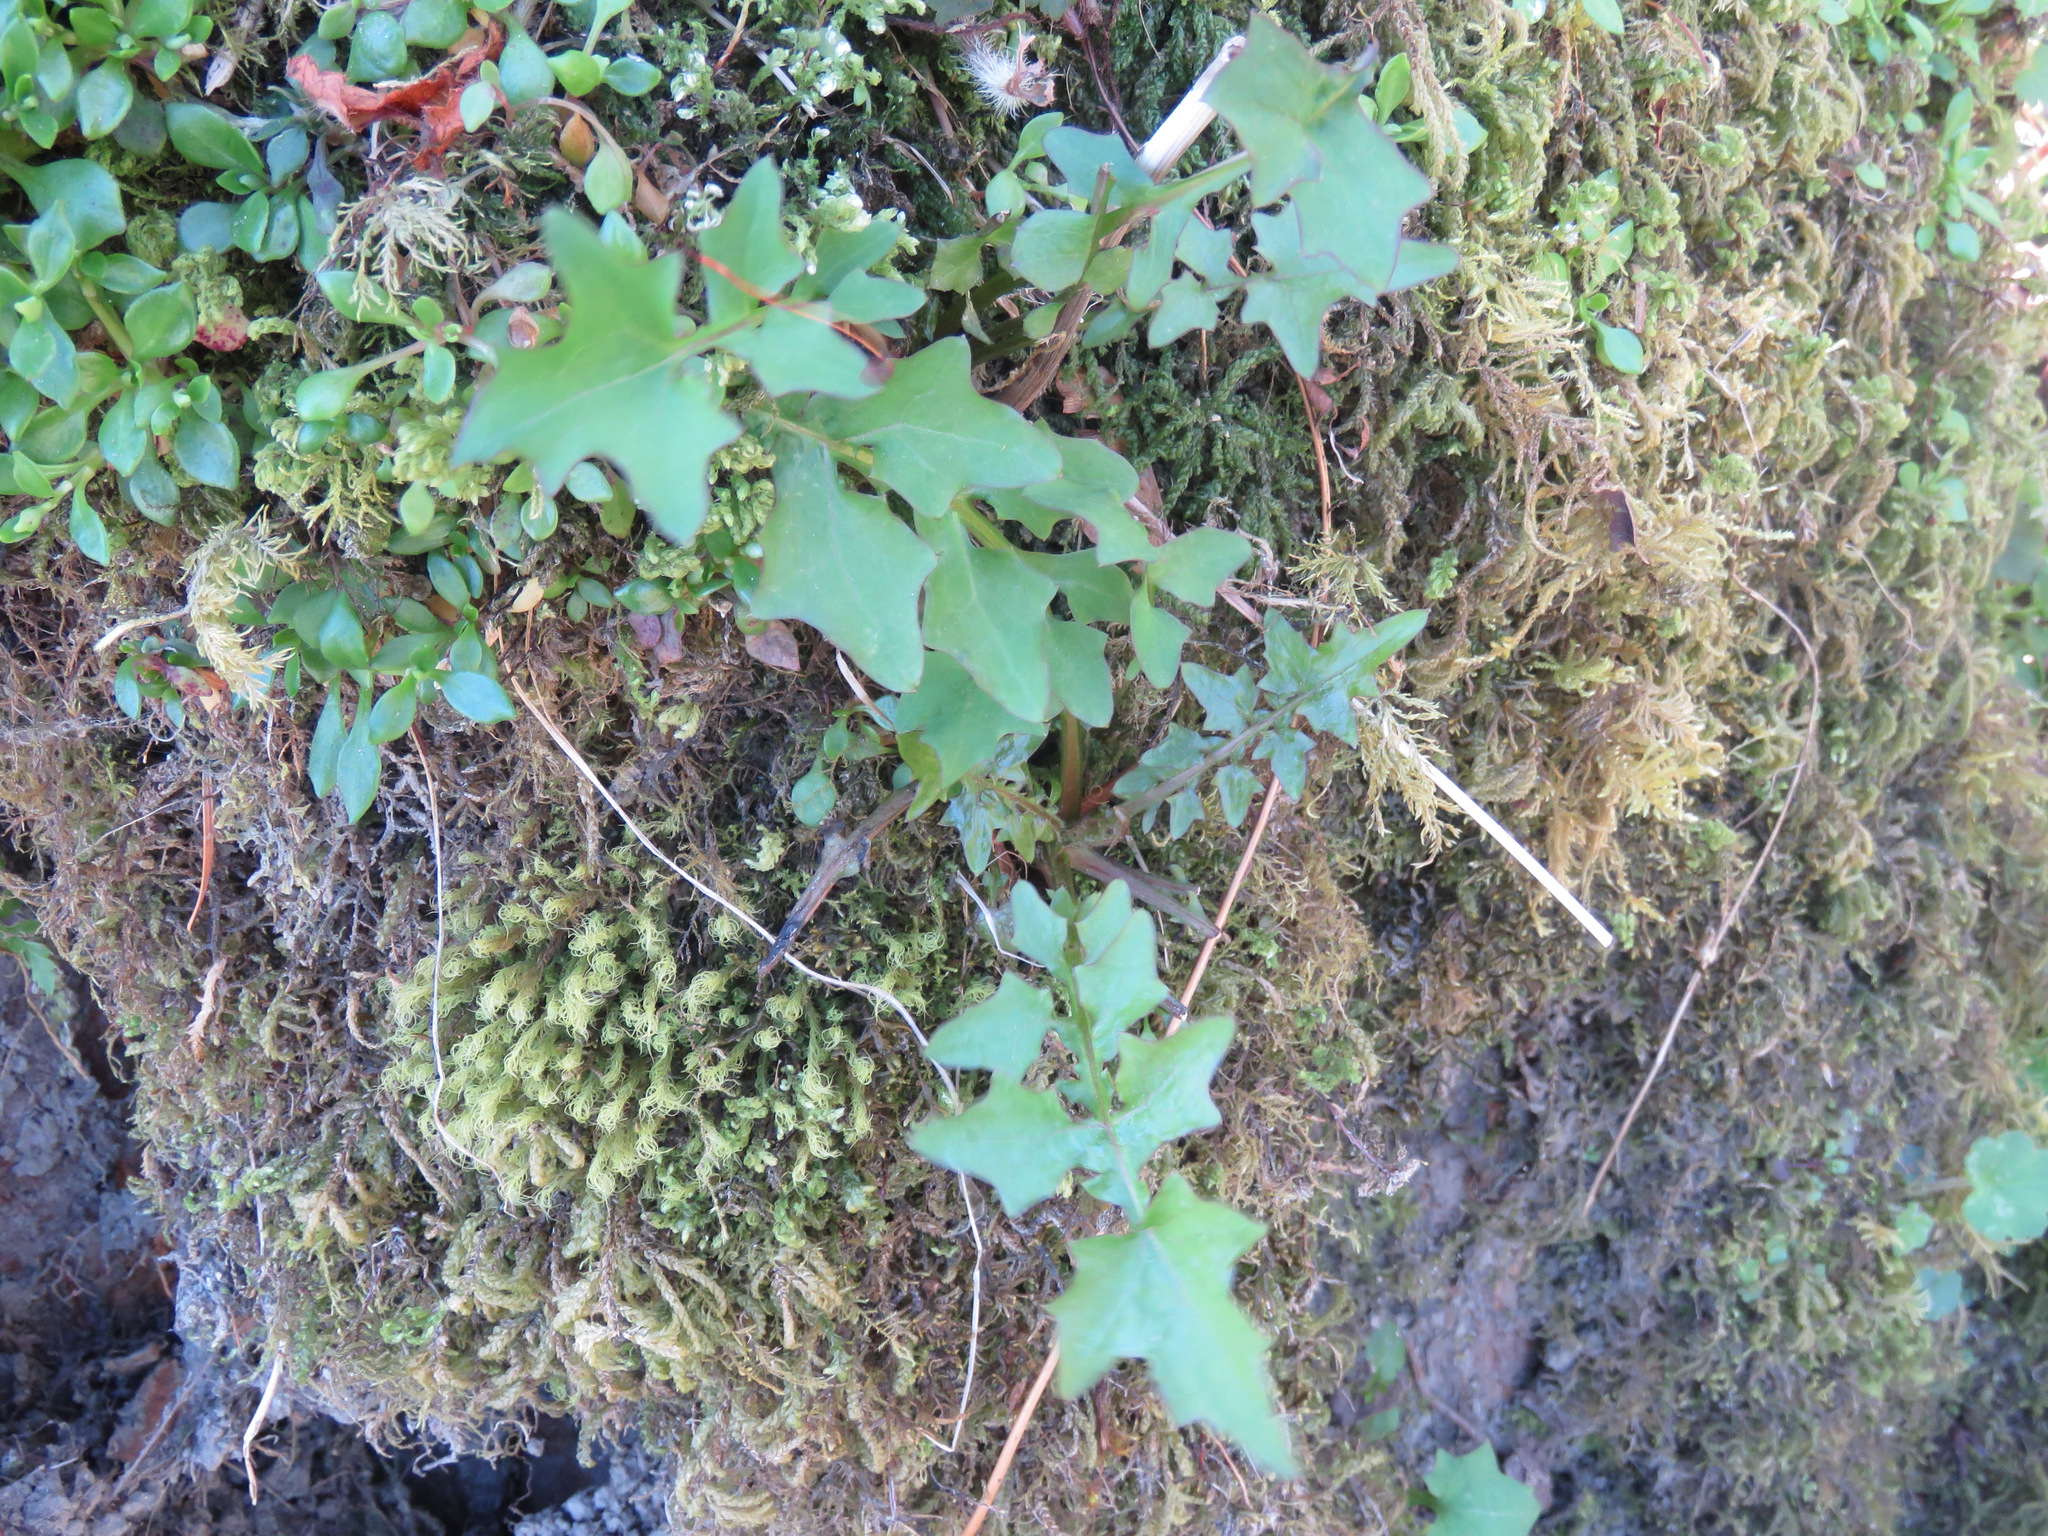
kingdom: Plantae
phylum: Tracheophyta
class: Magnoliopsida
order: Asterales
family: Asteraceae
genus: Mycelis
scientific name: Mycelis muralis
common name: Wall lettuce
